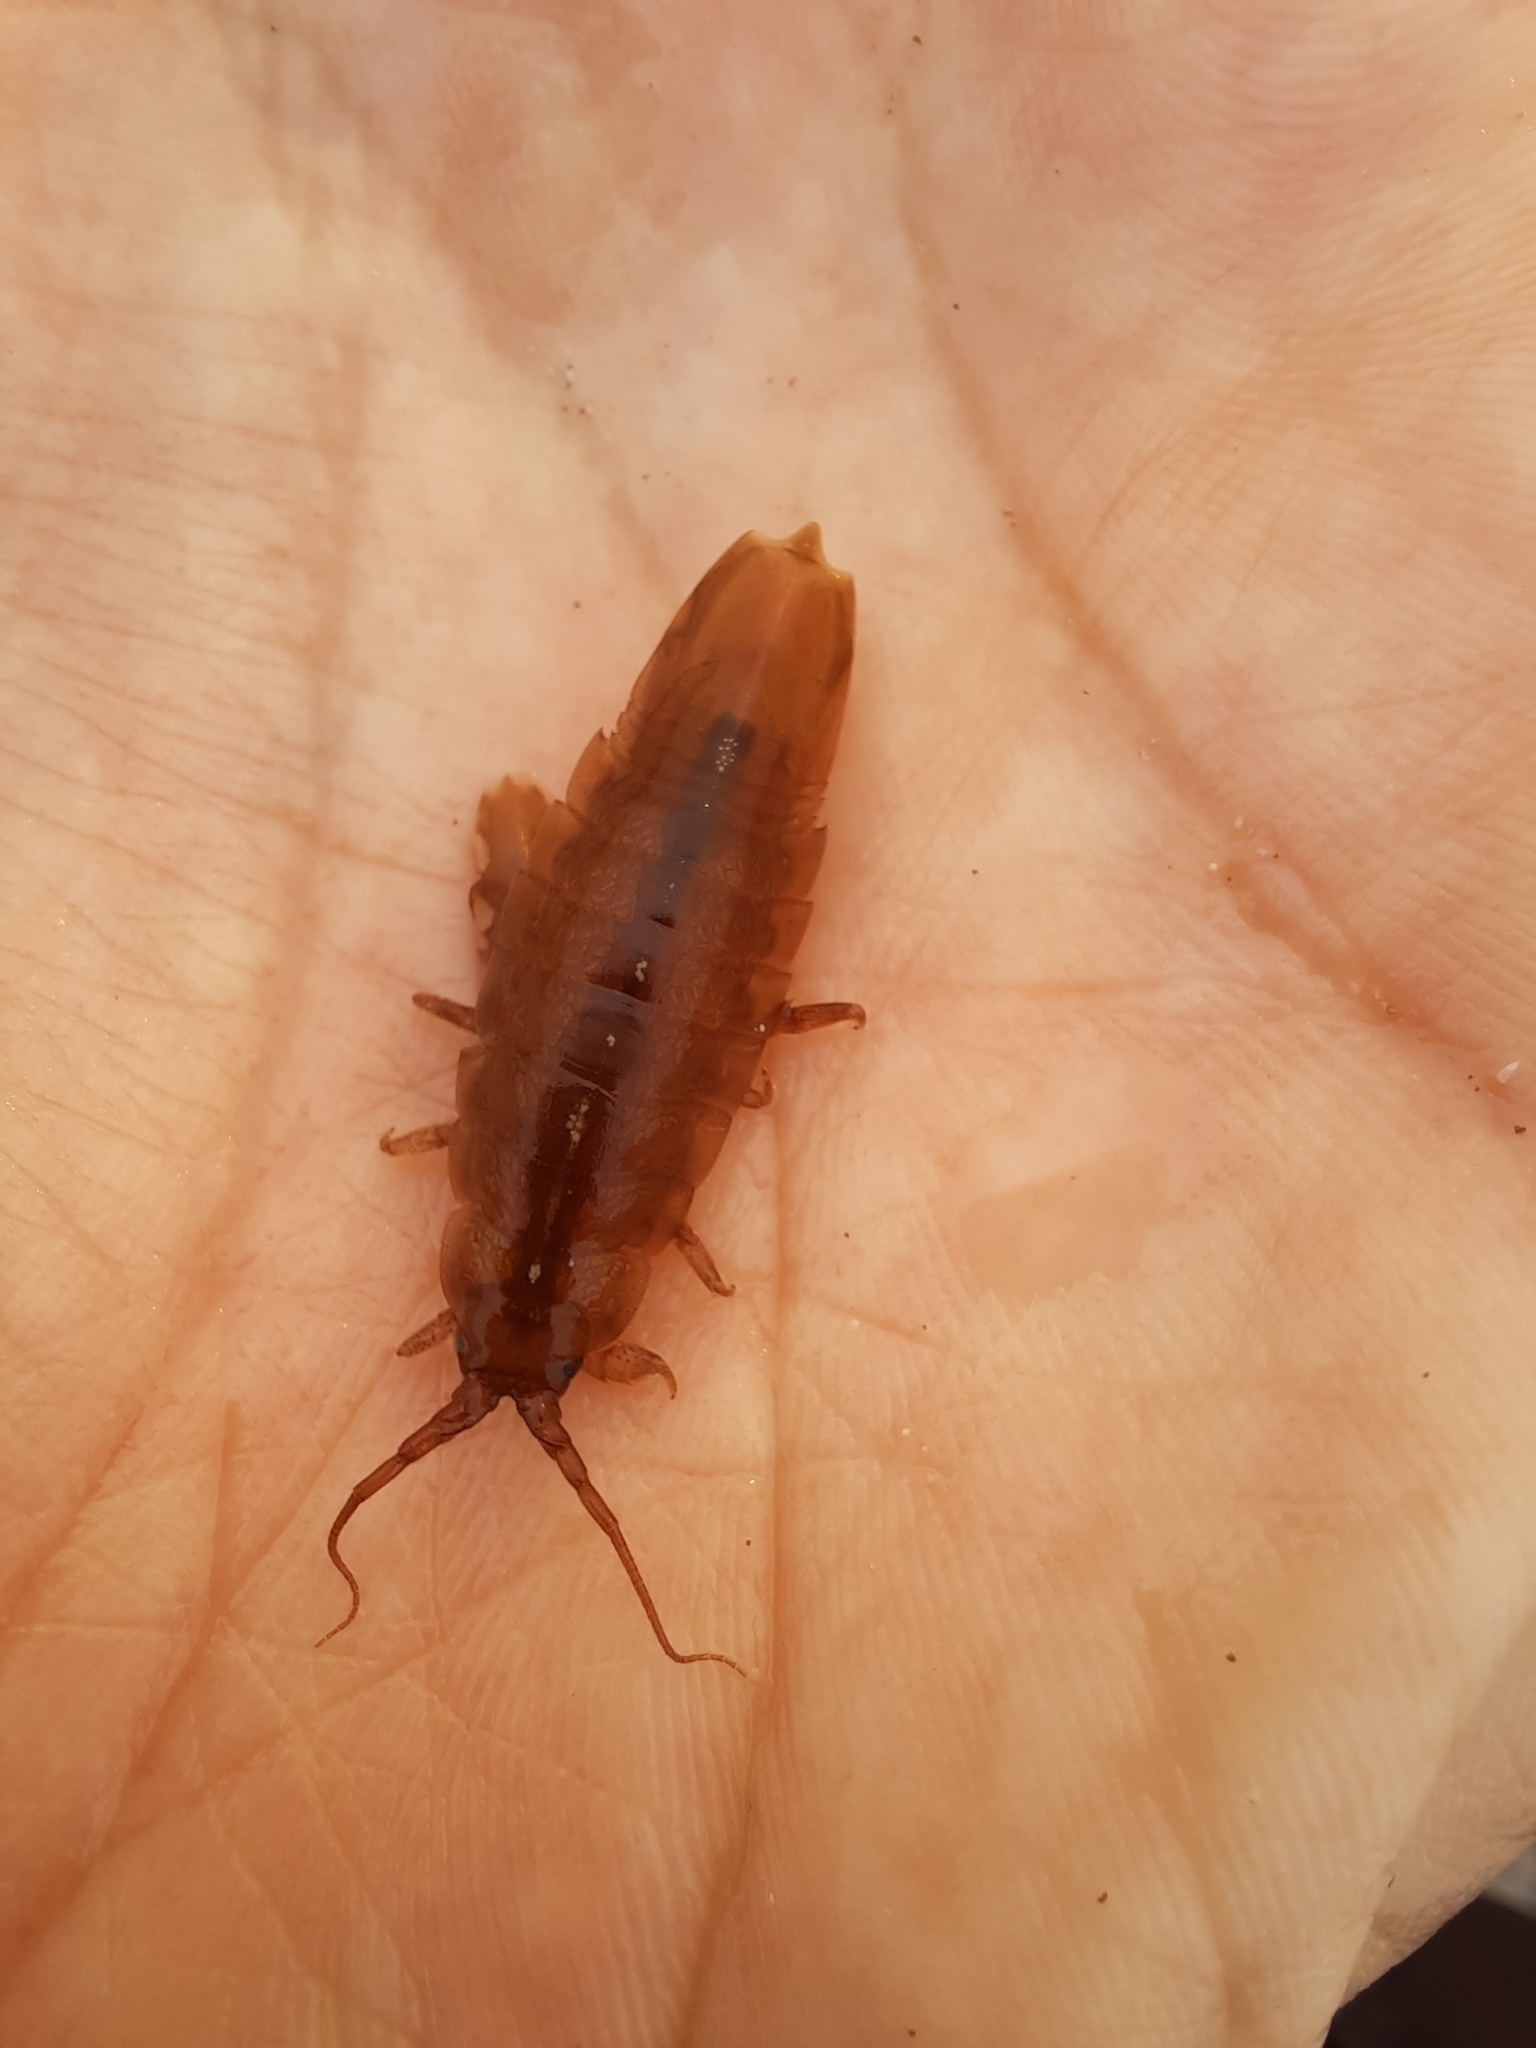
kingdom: Animalia
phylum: Arthropoda
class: Malacostraca
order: Isopoda
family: Idoteidae
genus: Idotea
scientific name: Idotea balthica
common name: Baltic isopod
